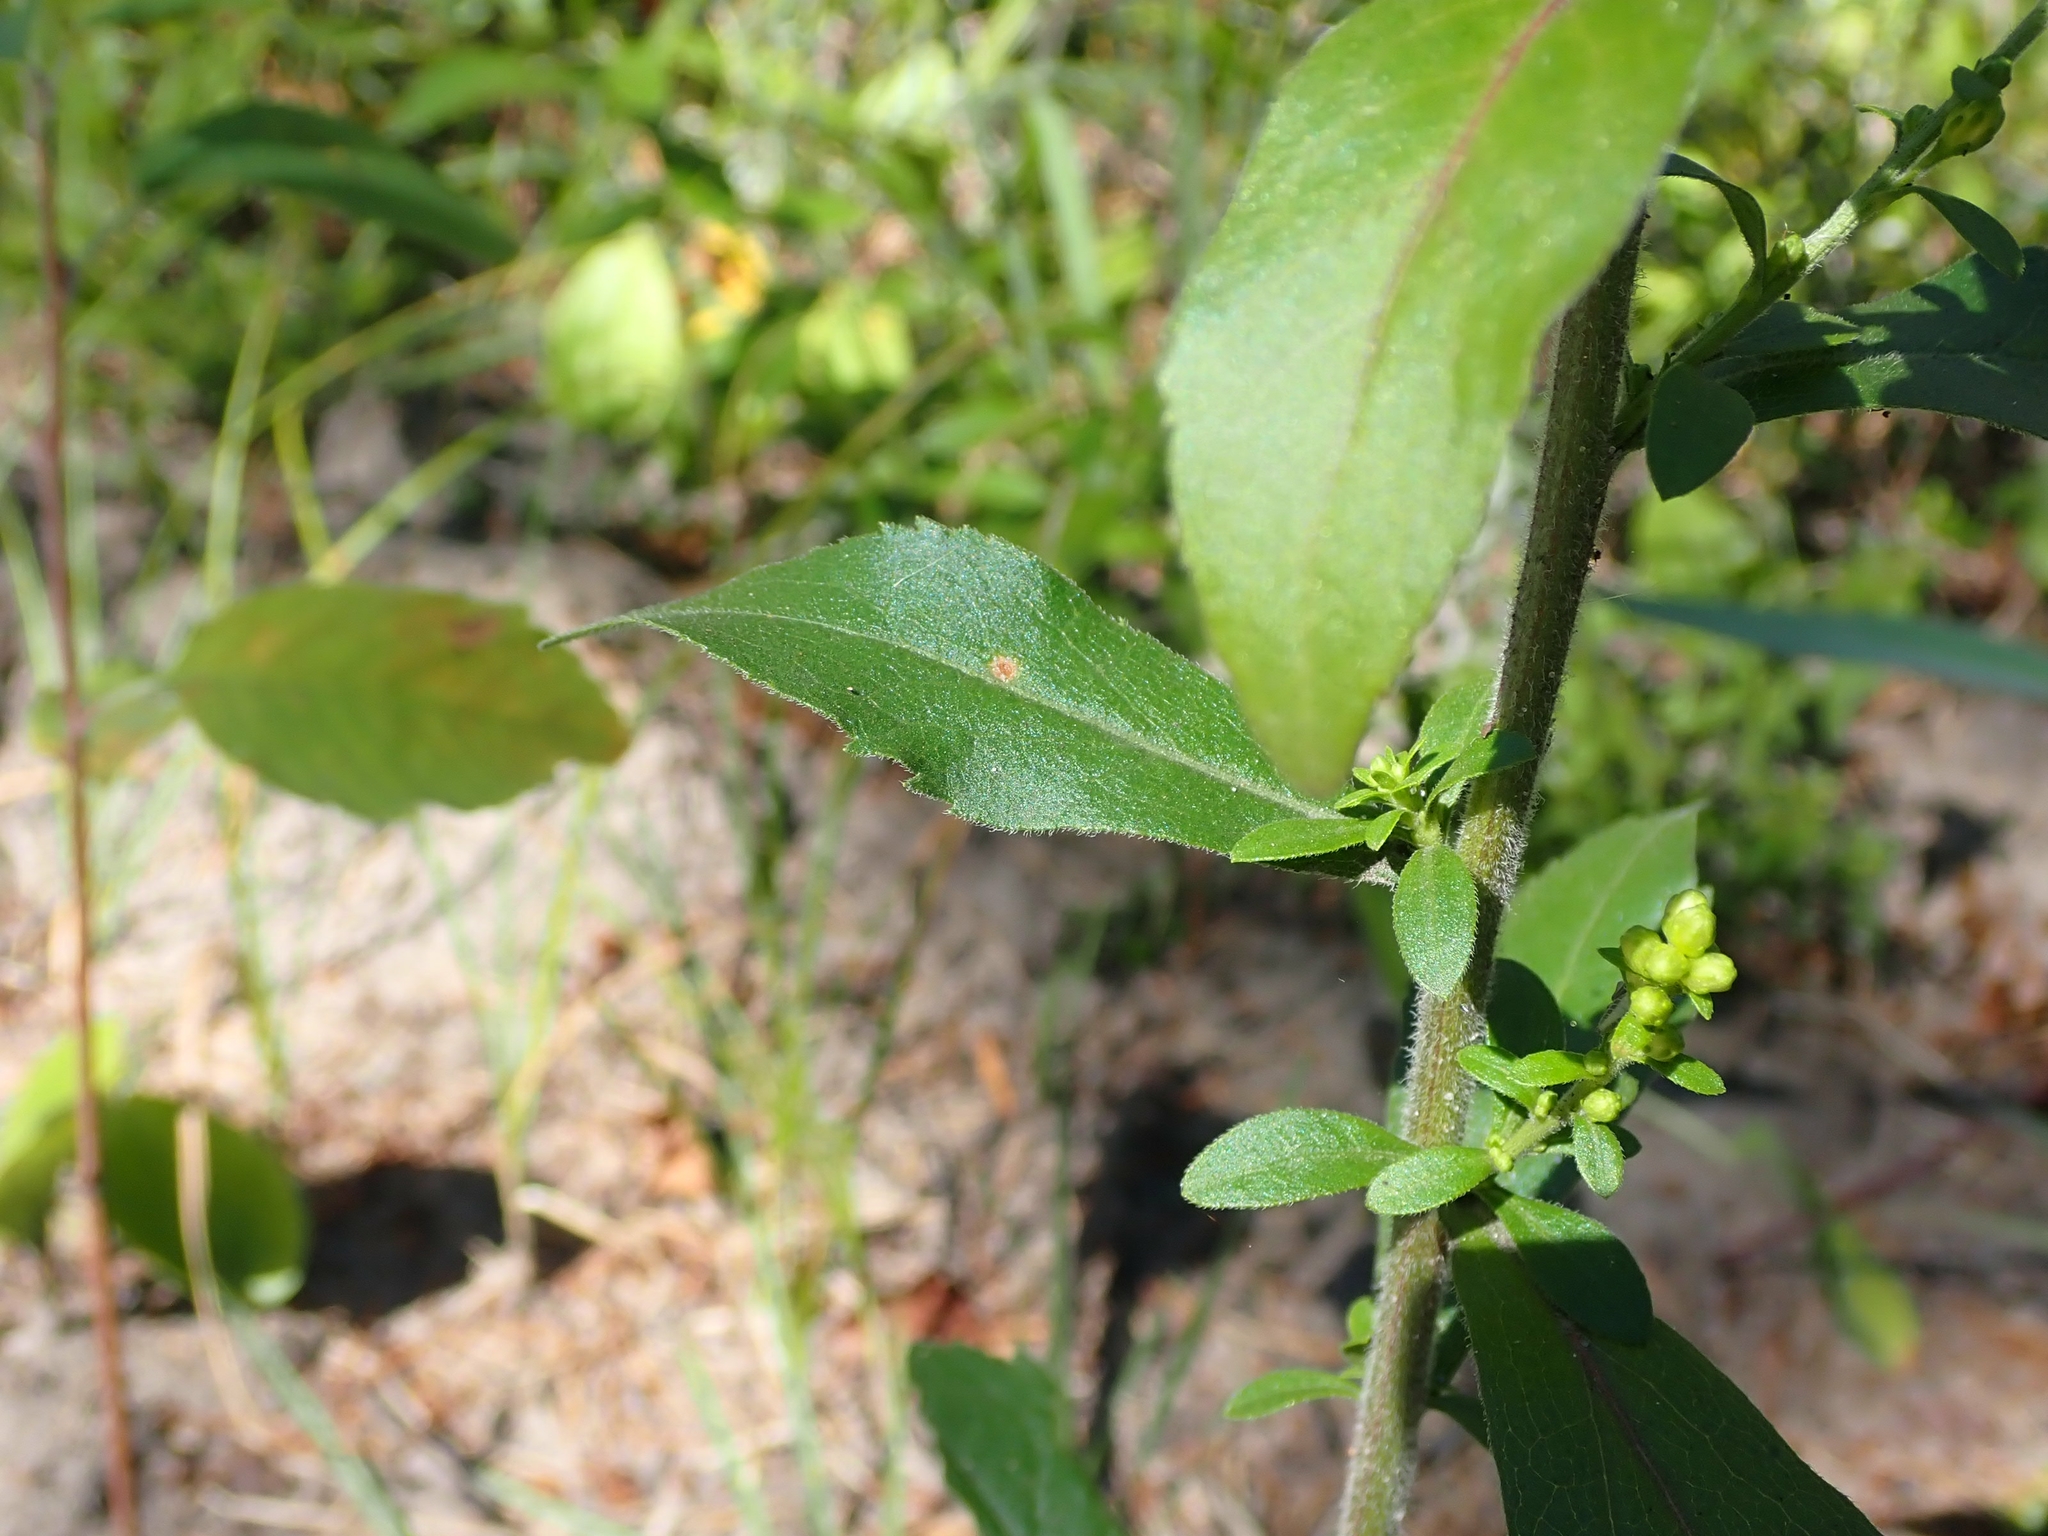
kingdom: Plantae
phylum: Tracheophyta
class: Magnoliopsida
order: Asterales
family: Asteraceae
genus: Solidago
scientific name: Solidago hispida
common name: Hairy goldenrod
